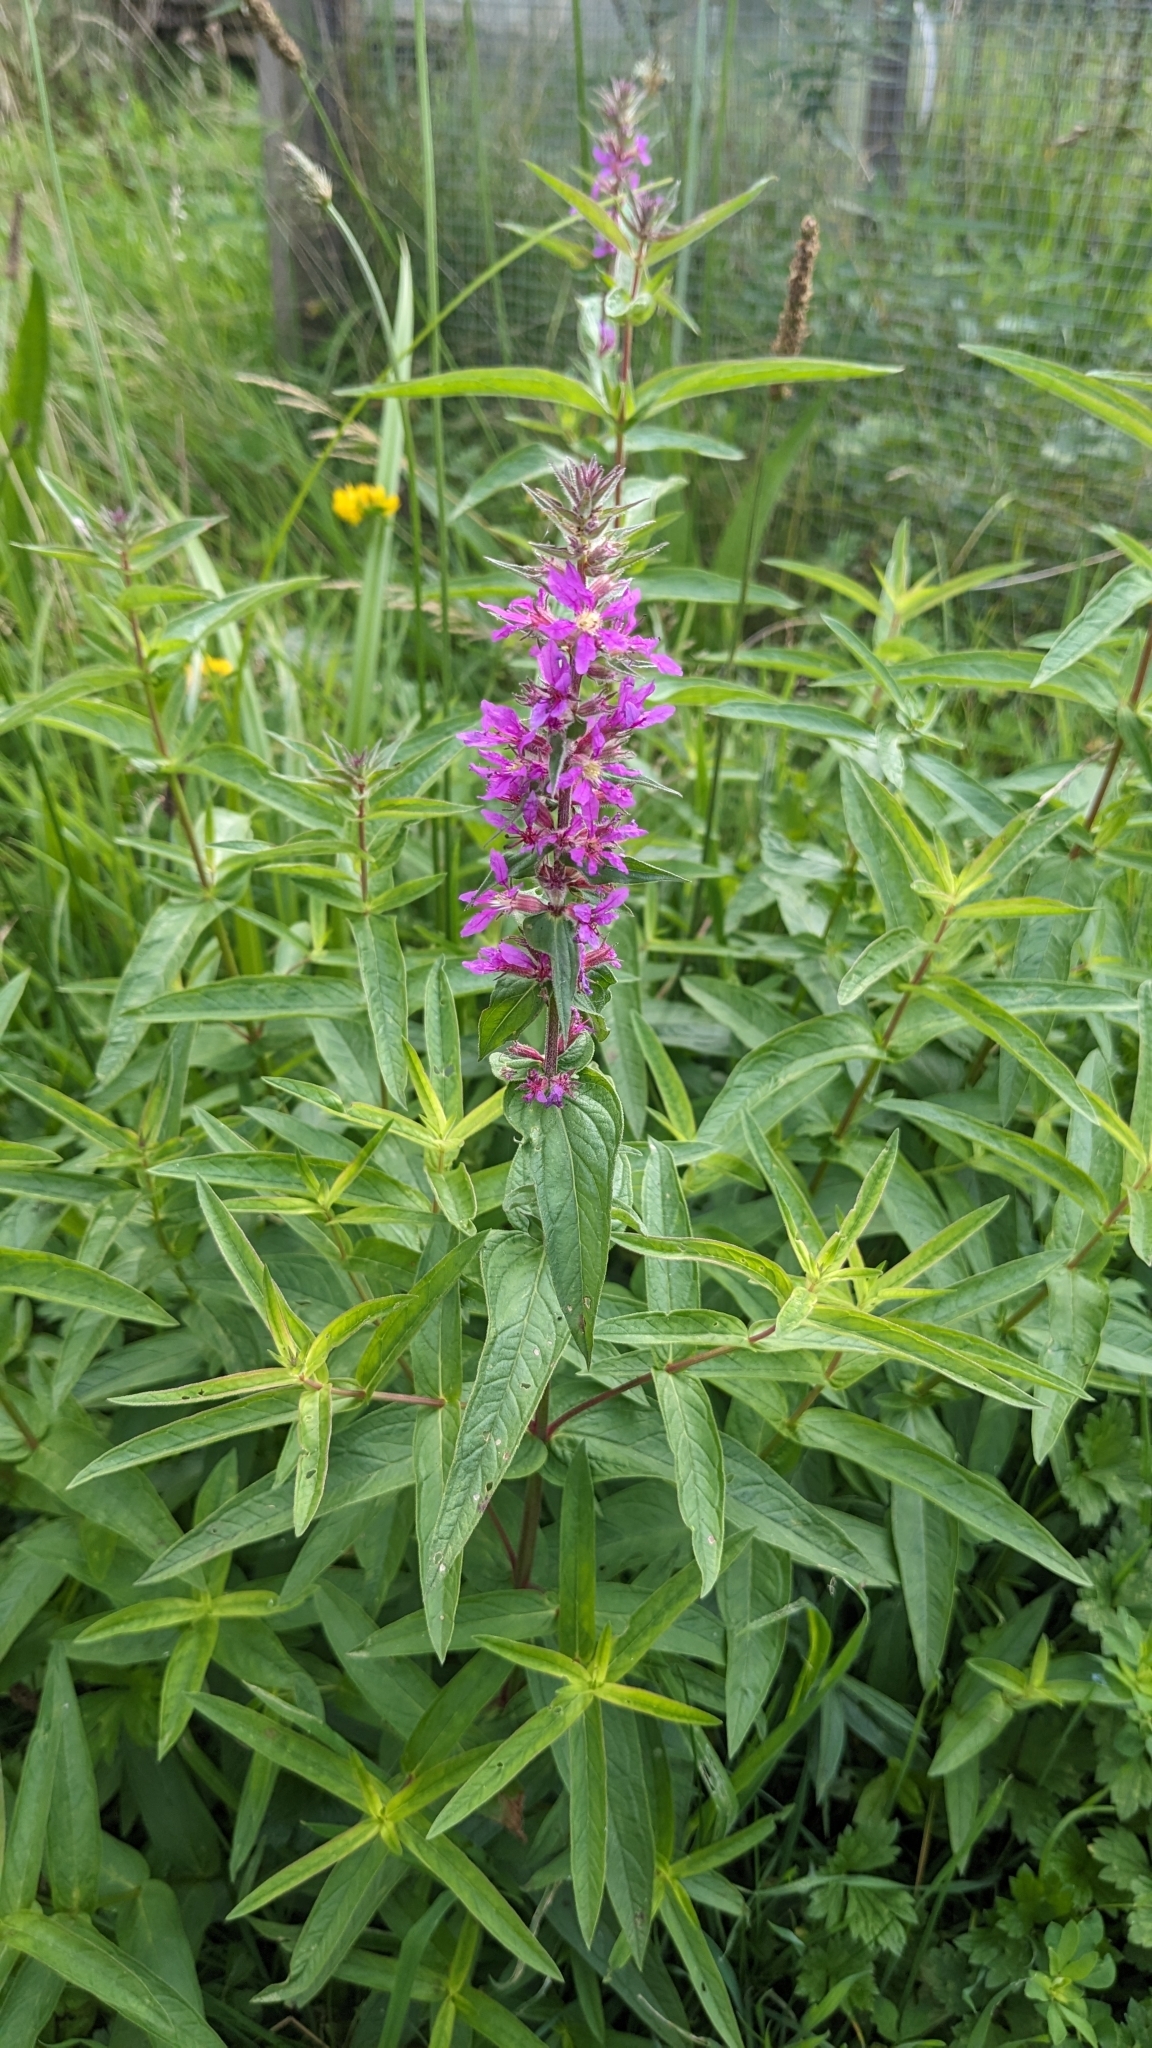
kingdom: Plantae
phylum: Tracheophyta
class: Magnoliopsida
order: Myrtales
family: Lythraceae
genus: Lythrum
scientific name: Lythrum salicaria
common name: Purple loosestrife
